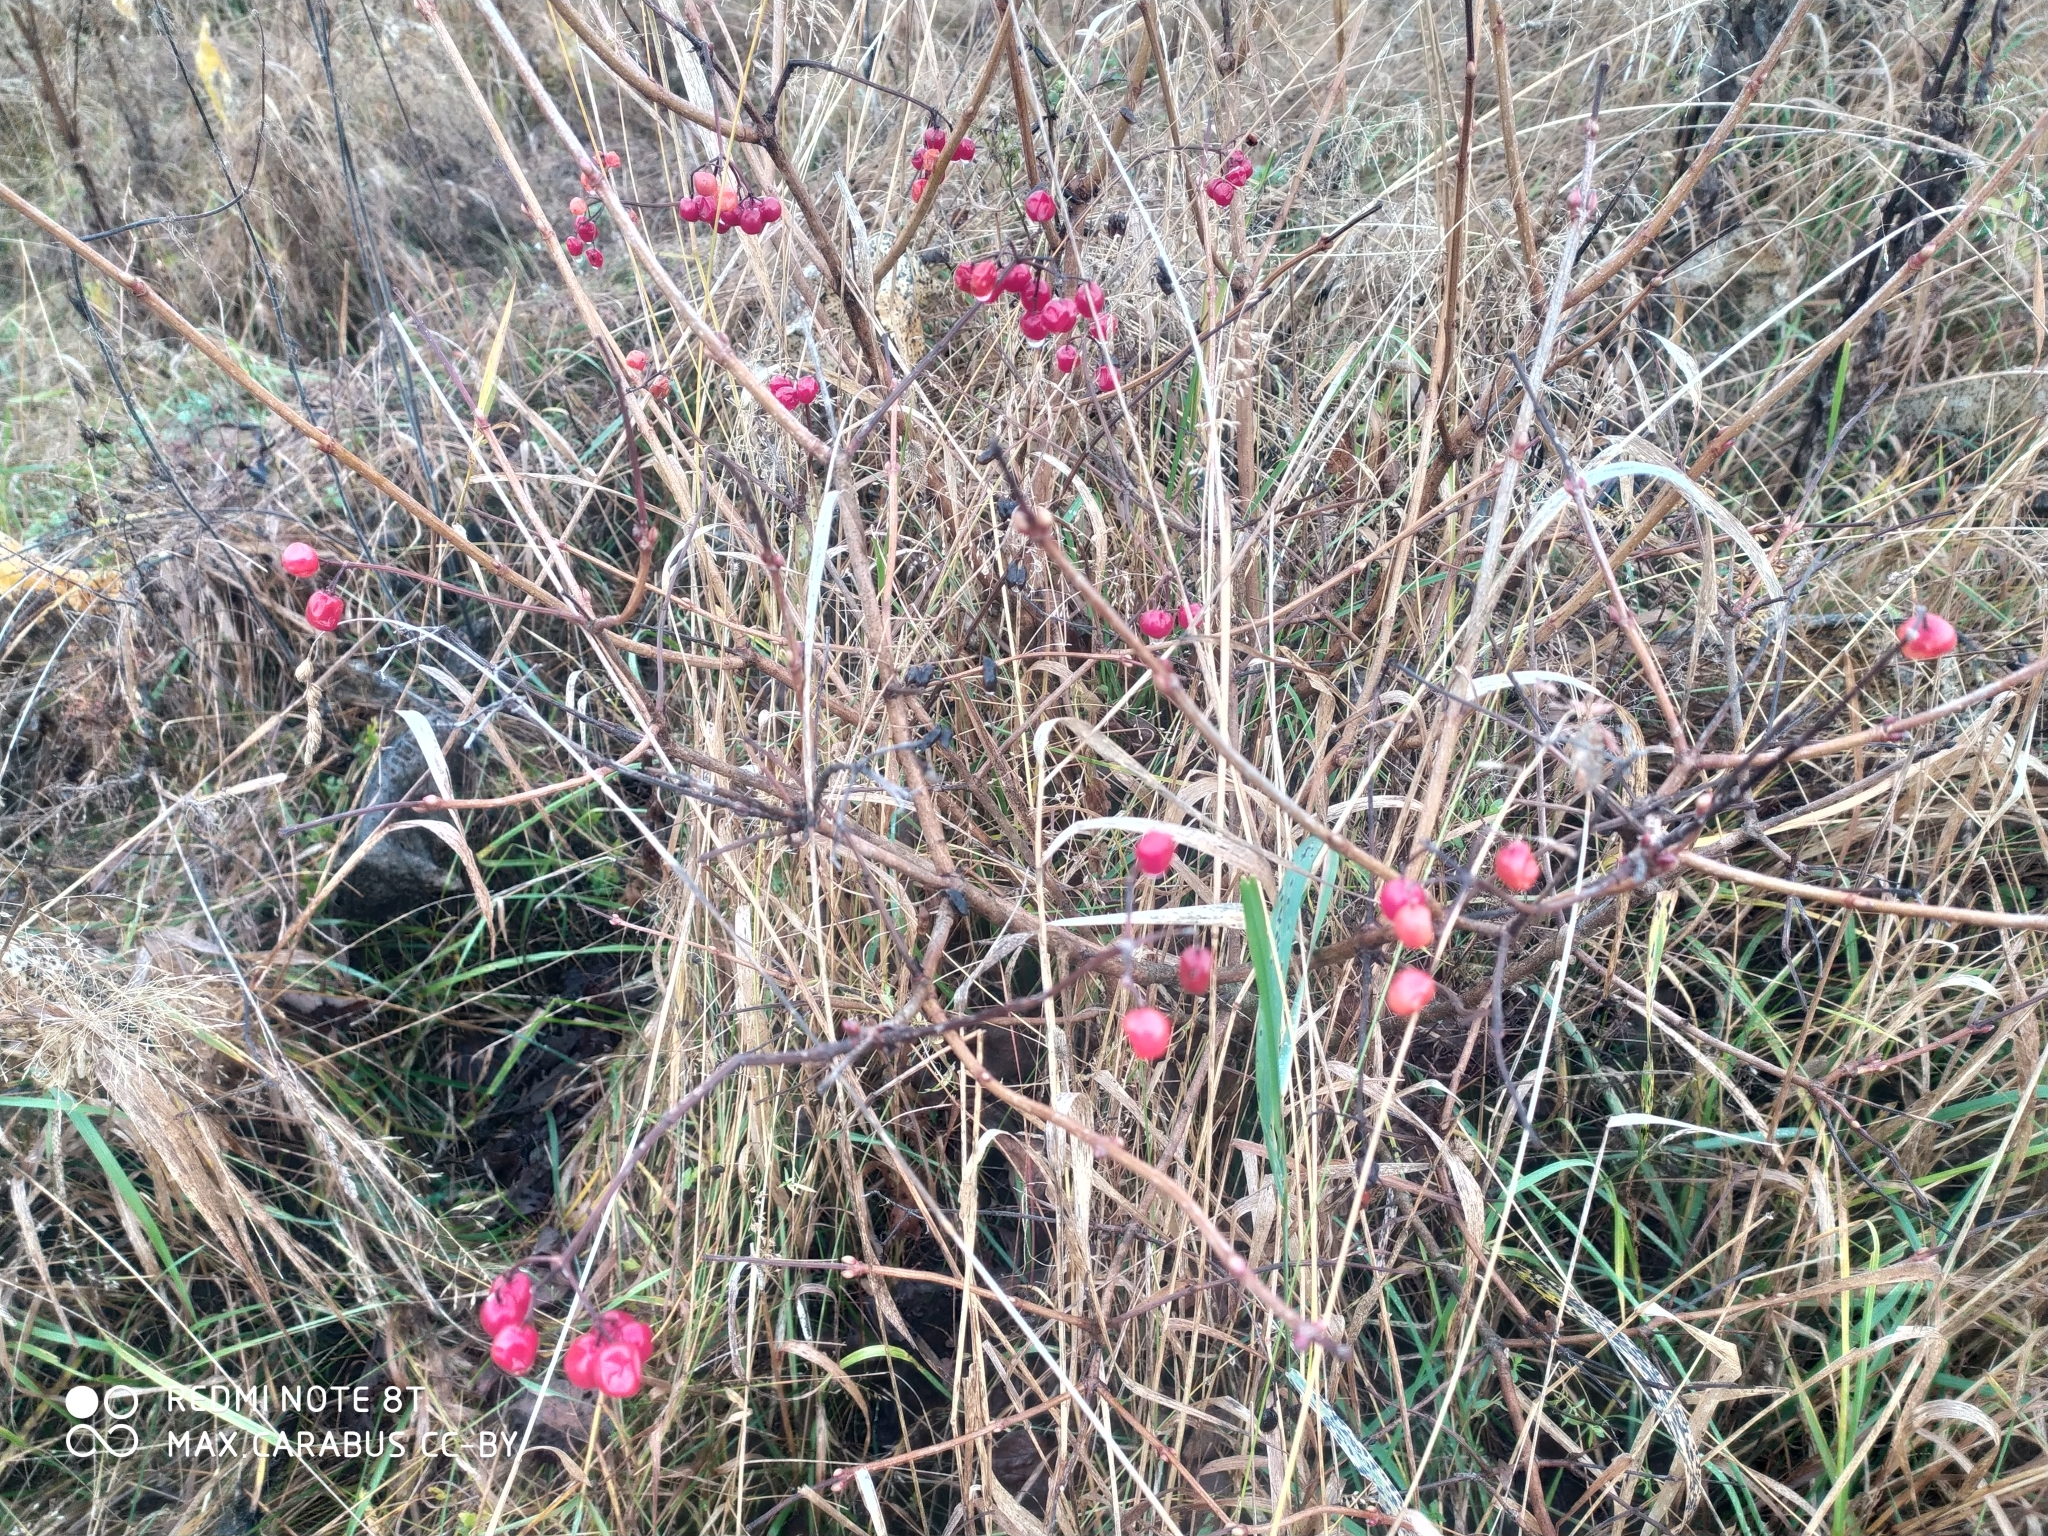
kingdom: Plantae
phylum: Tracheophyta
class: Magnoliopsida
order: Dipsacales
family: Viburnaceae
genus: Viburnum
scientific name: Viburnum opulus
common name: Guelder-rose
